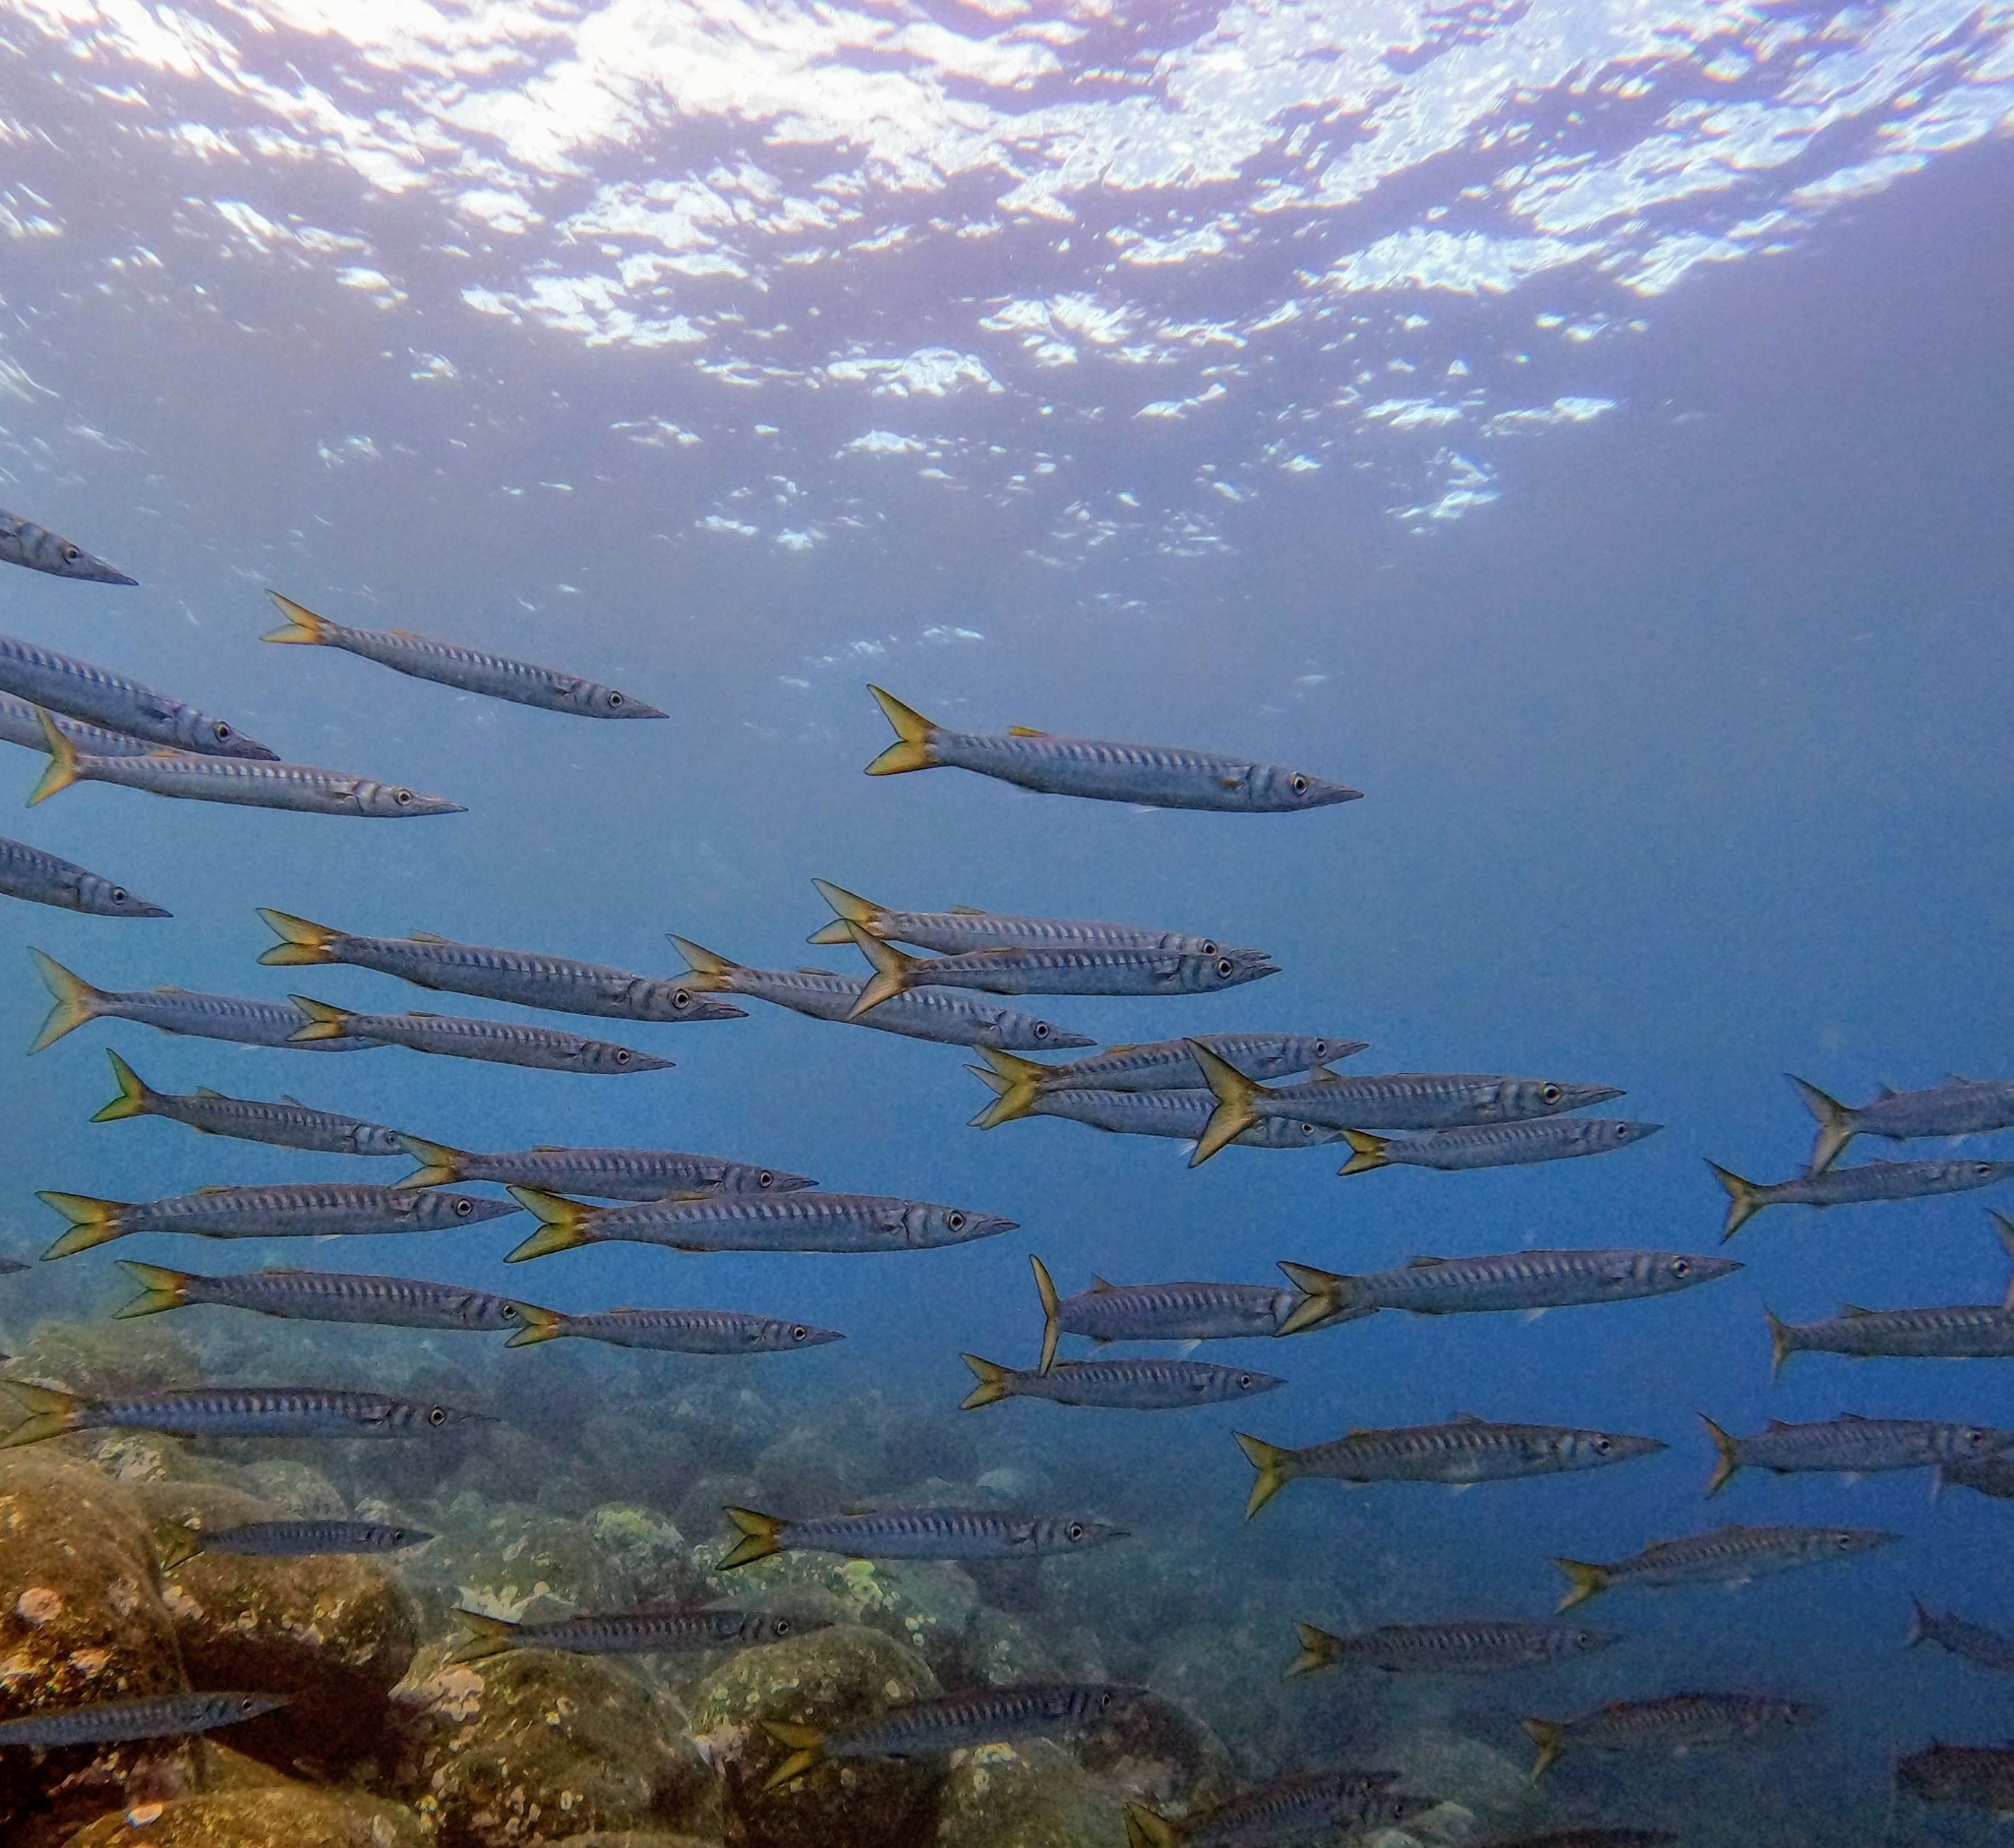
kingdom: Animalia
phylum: Chordata
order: Perciformes
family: Sphyraenidae
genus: Sphyraena
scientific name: Sphyraena viridensis
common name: Yellowmouth barracuda
